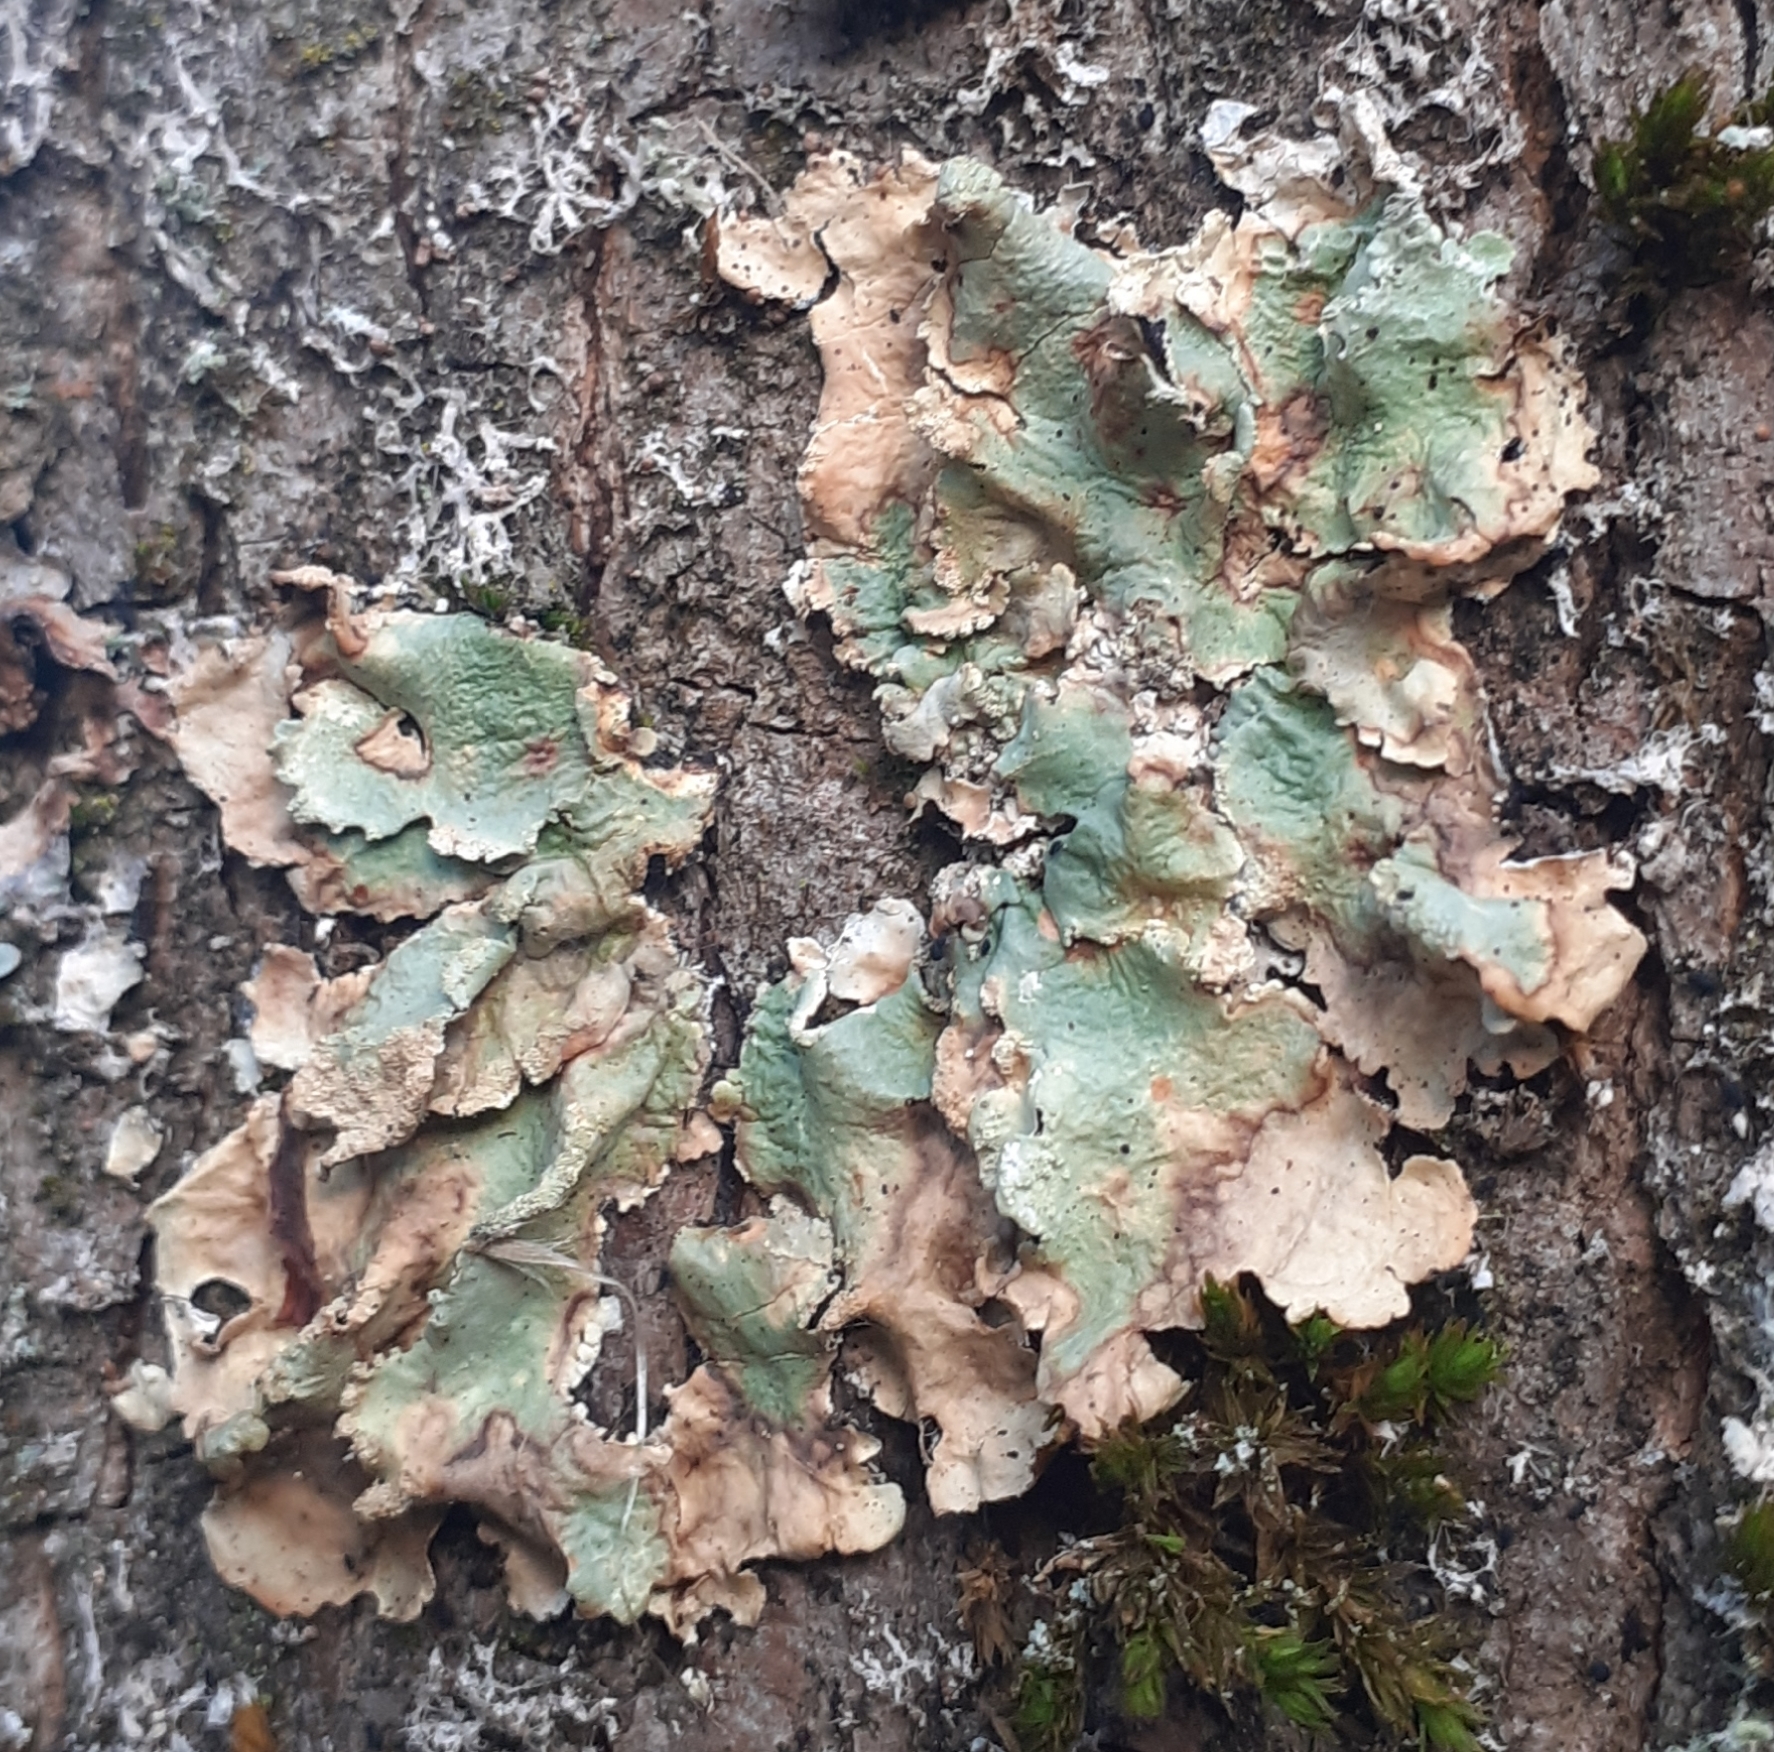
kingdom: Fungi
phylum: Ascomycota
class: Lecanoromycetes
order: Lecanorales
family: Parmeliaceae
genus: Flavoparmelia
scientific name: Flavoparmelia caperata
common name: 40-mile per hour lichen
